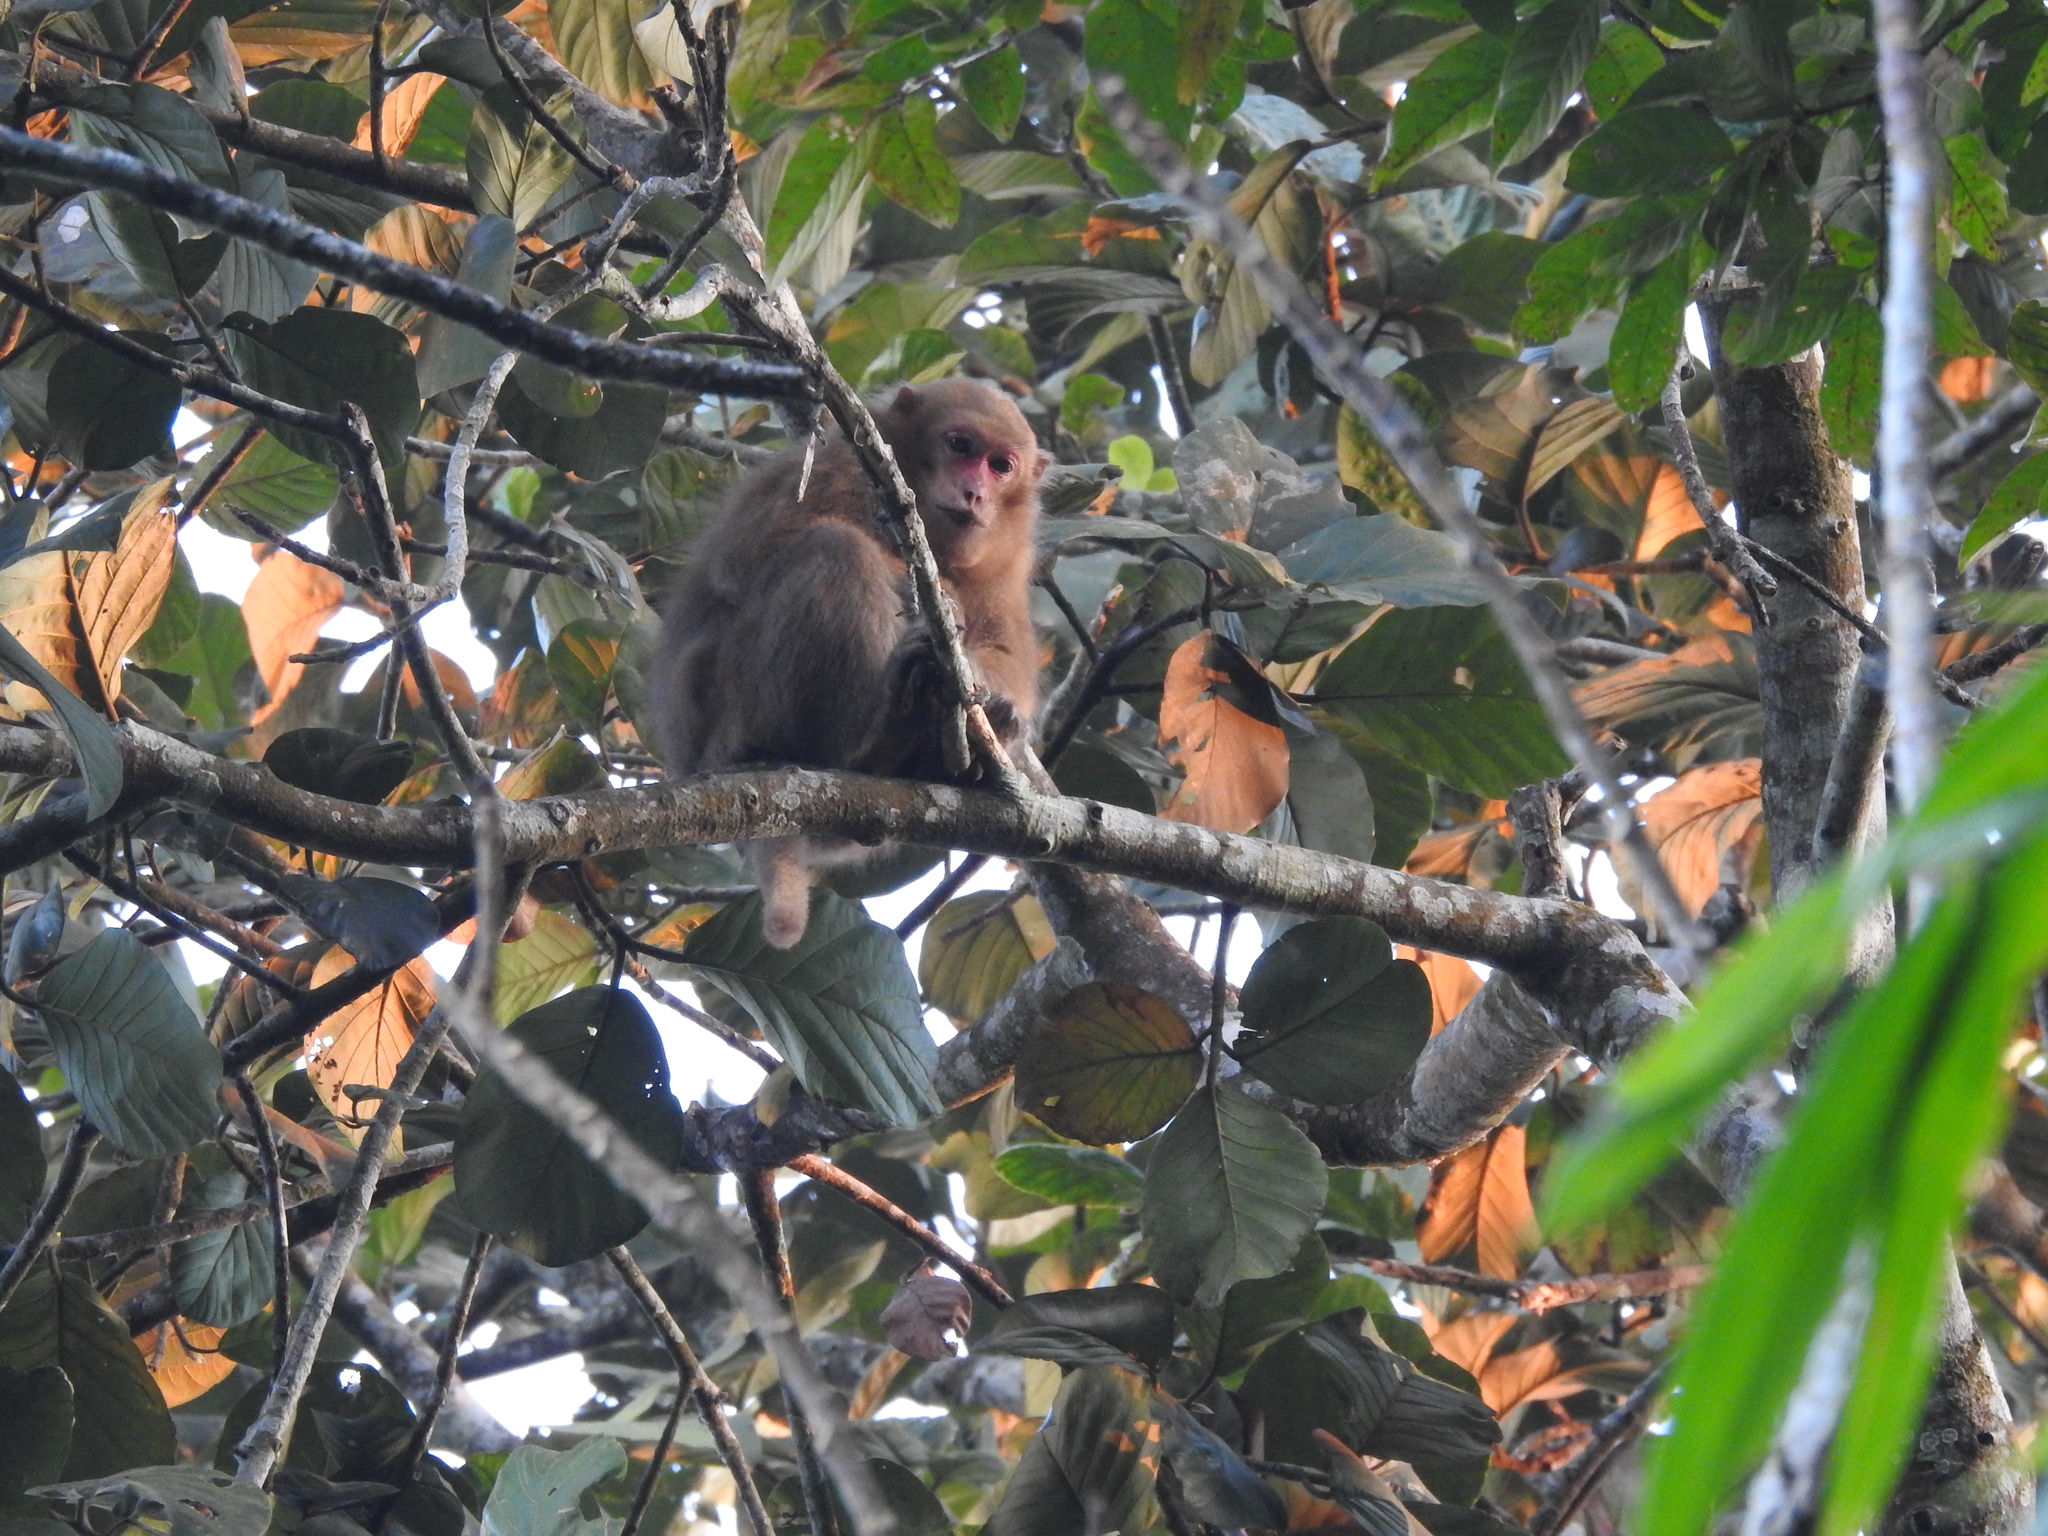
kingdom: Animalia
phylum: Chordata
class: Mammalia
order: Primates
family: Cercopithecidae
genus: Macaca
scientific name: Macaca assamensis
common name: Assam macaque
